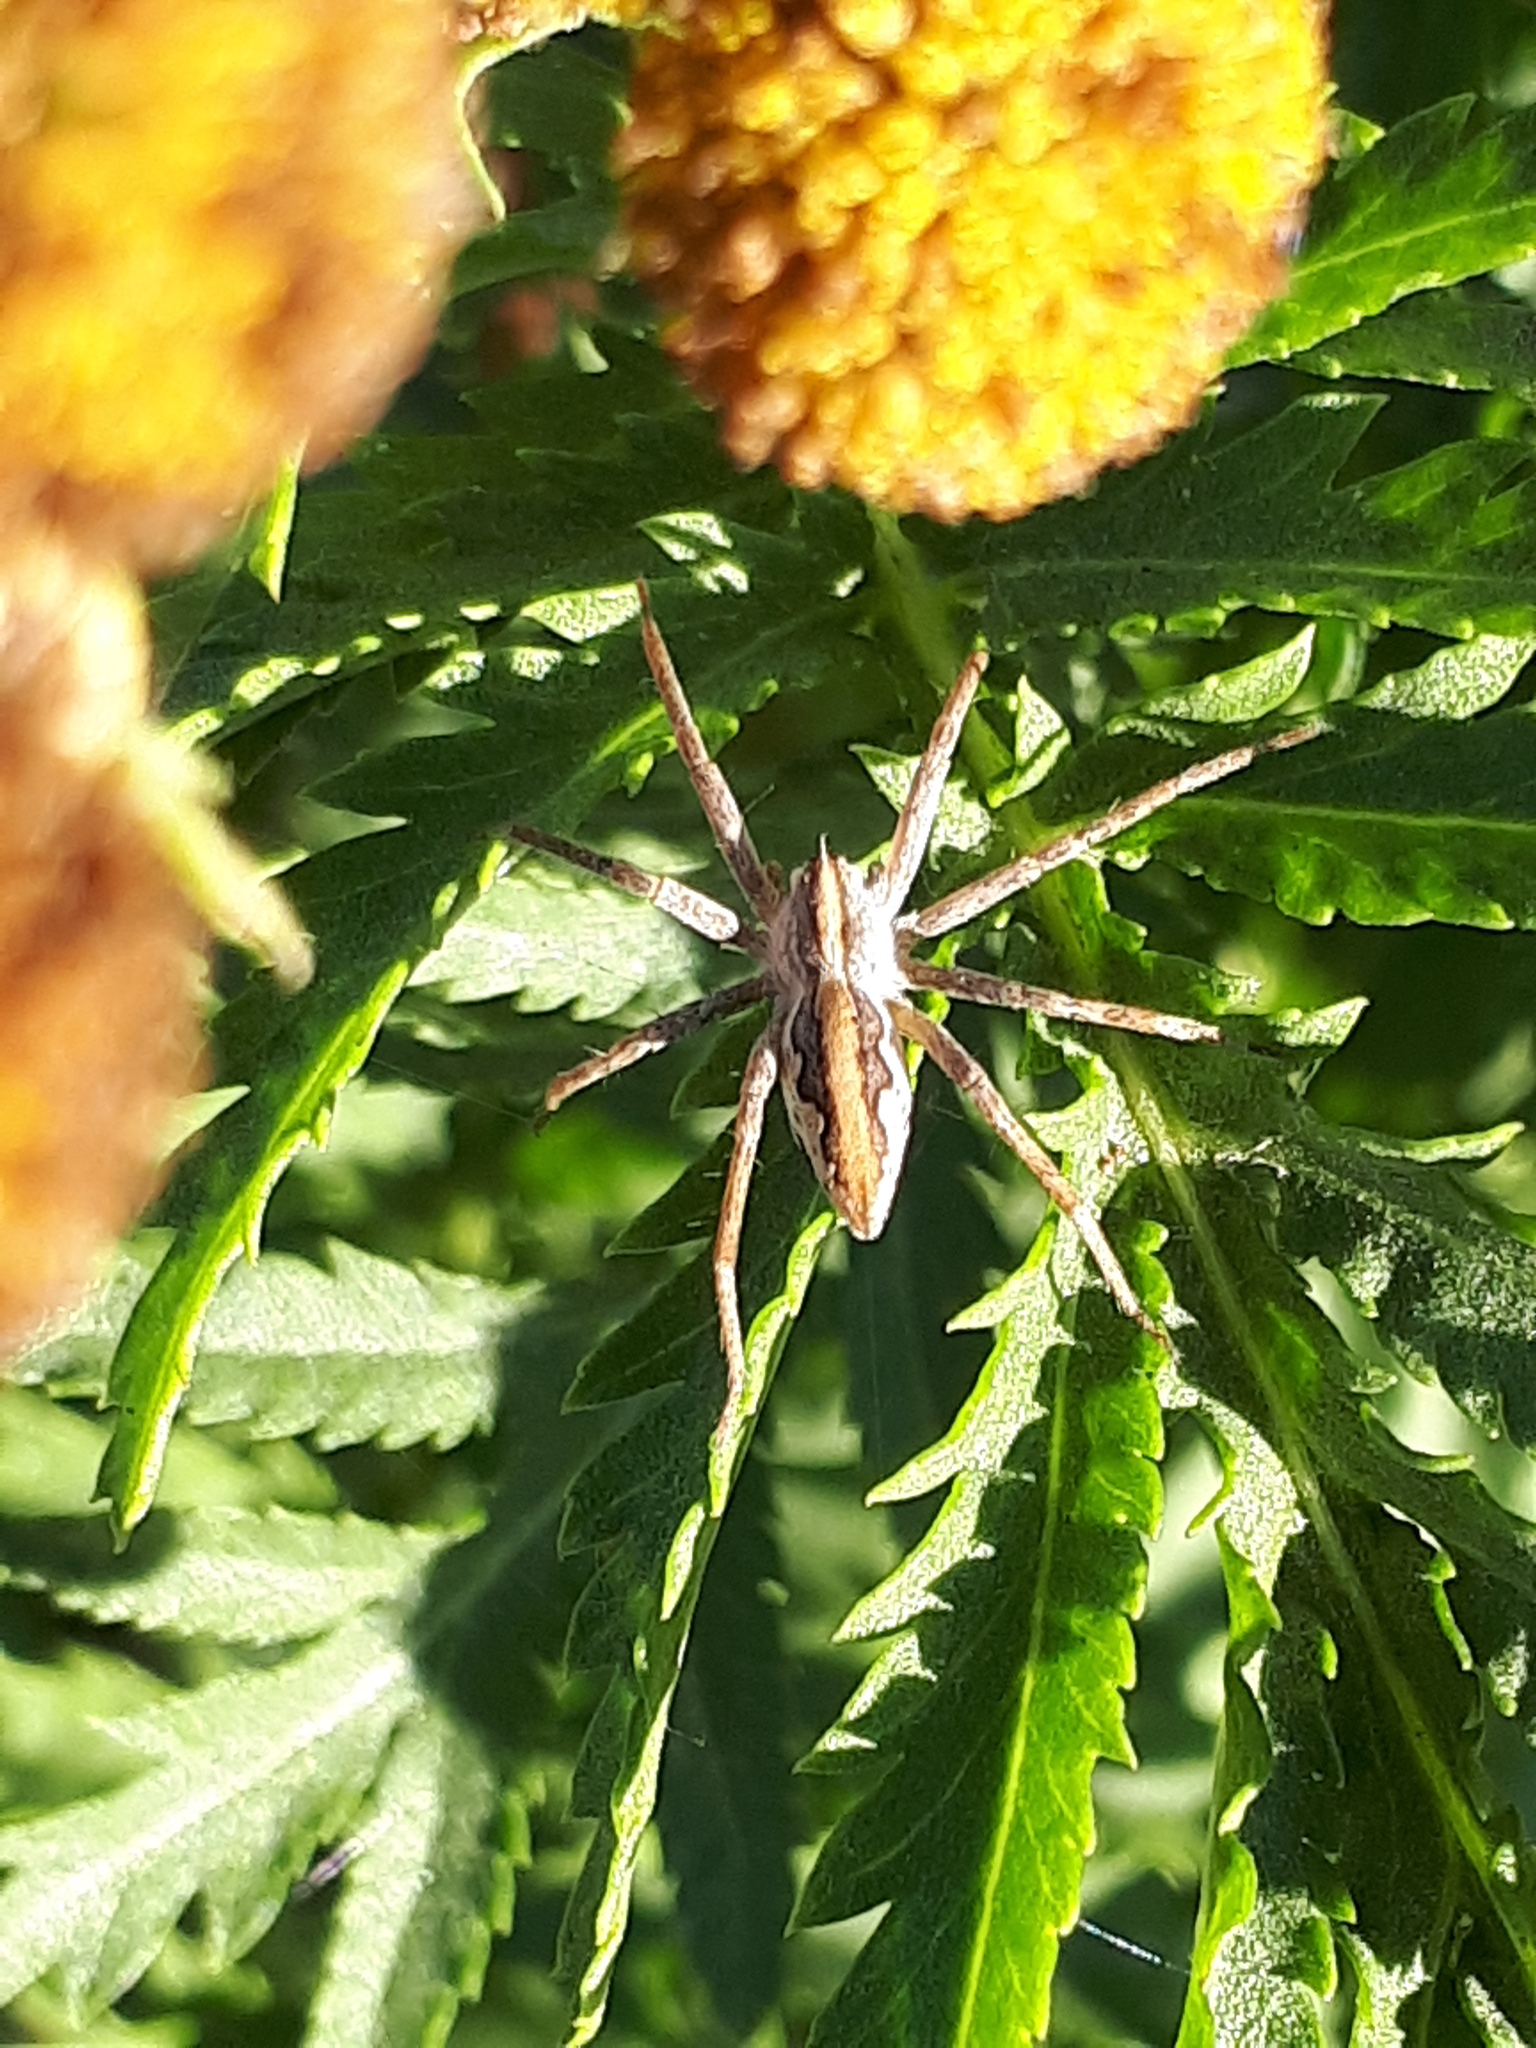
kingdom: Animalia
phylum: Arthropoda
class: Arachnida
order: Araneae
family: Pisauridae
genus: Pisaura
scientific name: Pisaura mirabilis
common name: Tent spider
